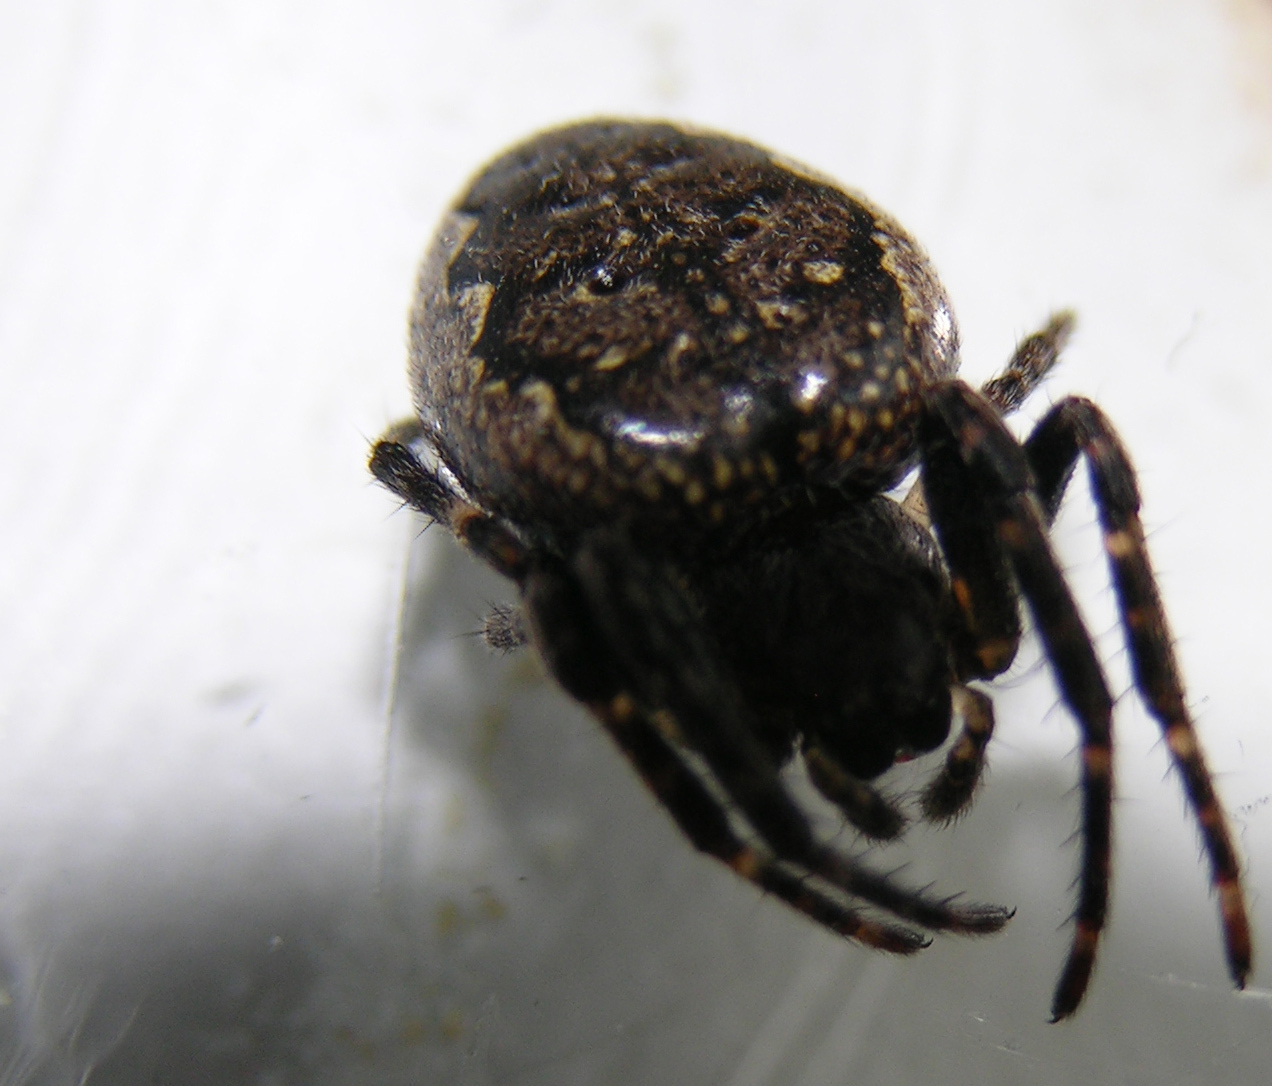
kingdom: Animalia
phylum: Arthropoda
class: Arachnida
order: Araneae
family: Araneidae
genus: Nuctenea
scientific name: Nuctenea umbratica
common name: Toad spider
